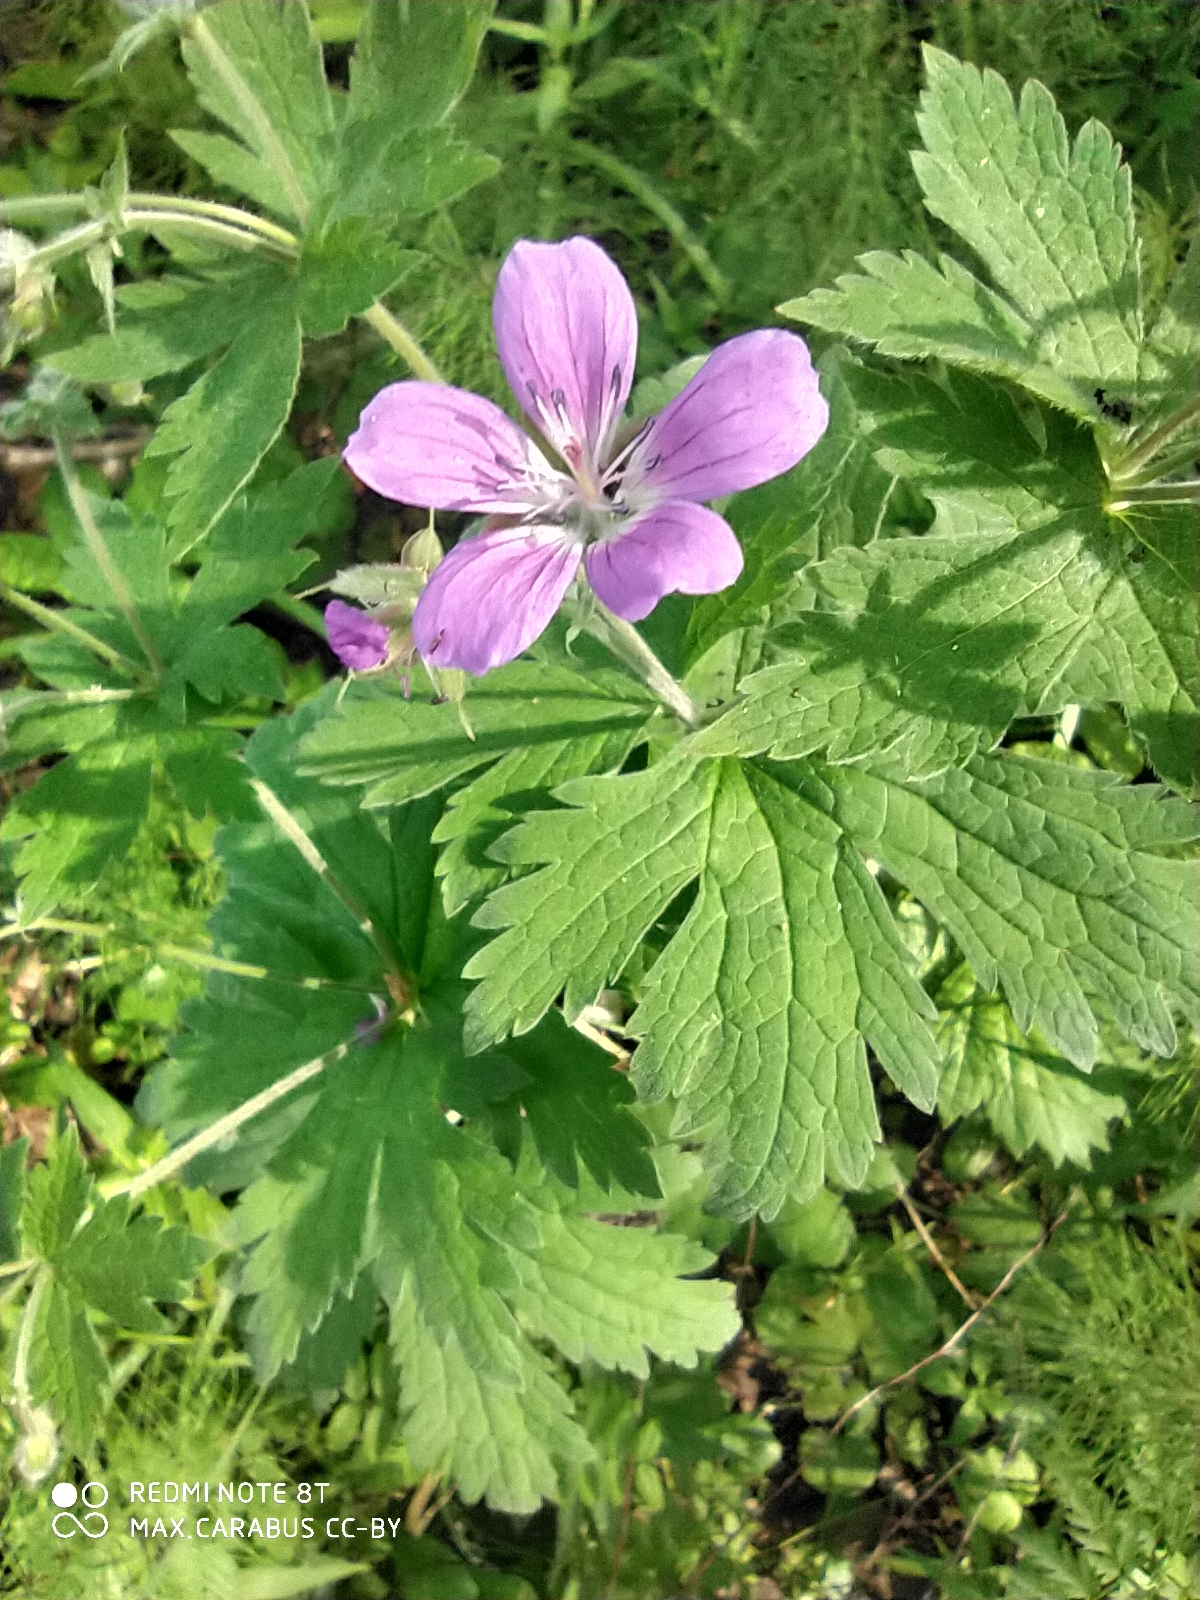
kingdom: Plantae
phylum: Tracheophyta
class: Magnoliopsida
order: Geraniales
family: Geraniaceae
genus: Geranium
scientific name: Geranium sylvaticum
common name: Wood crane's-bill
